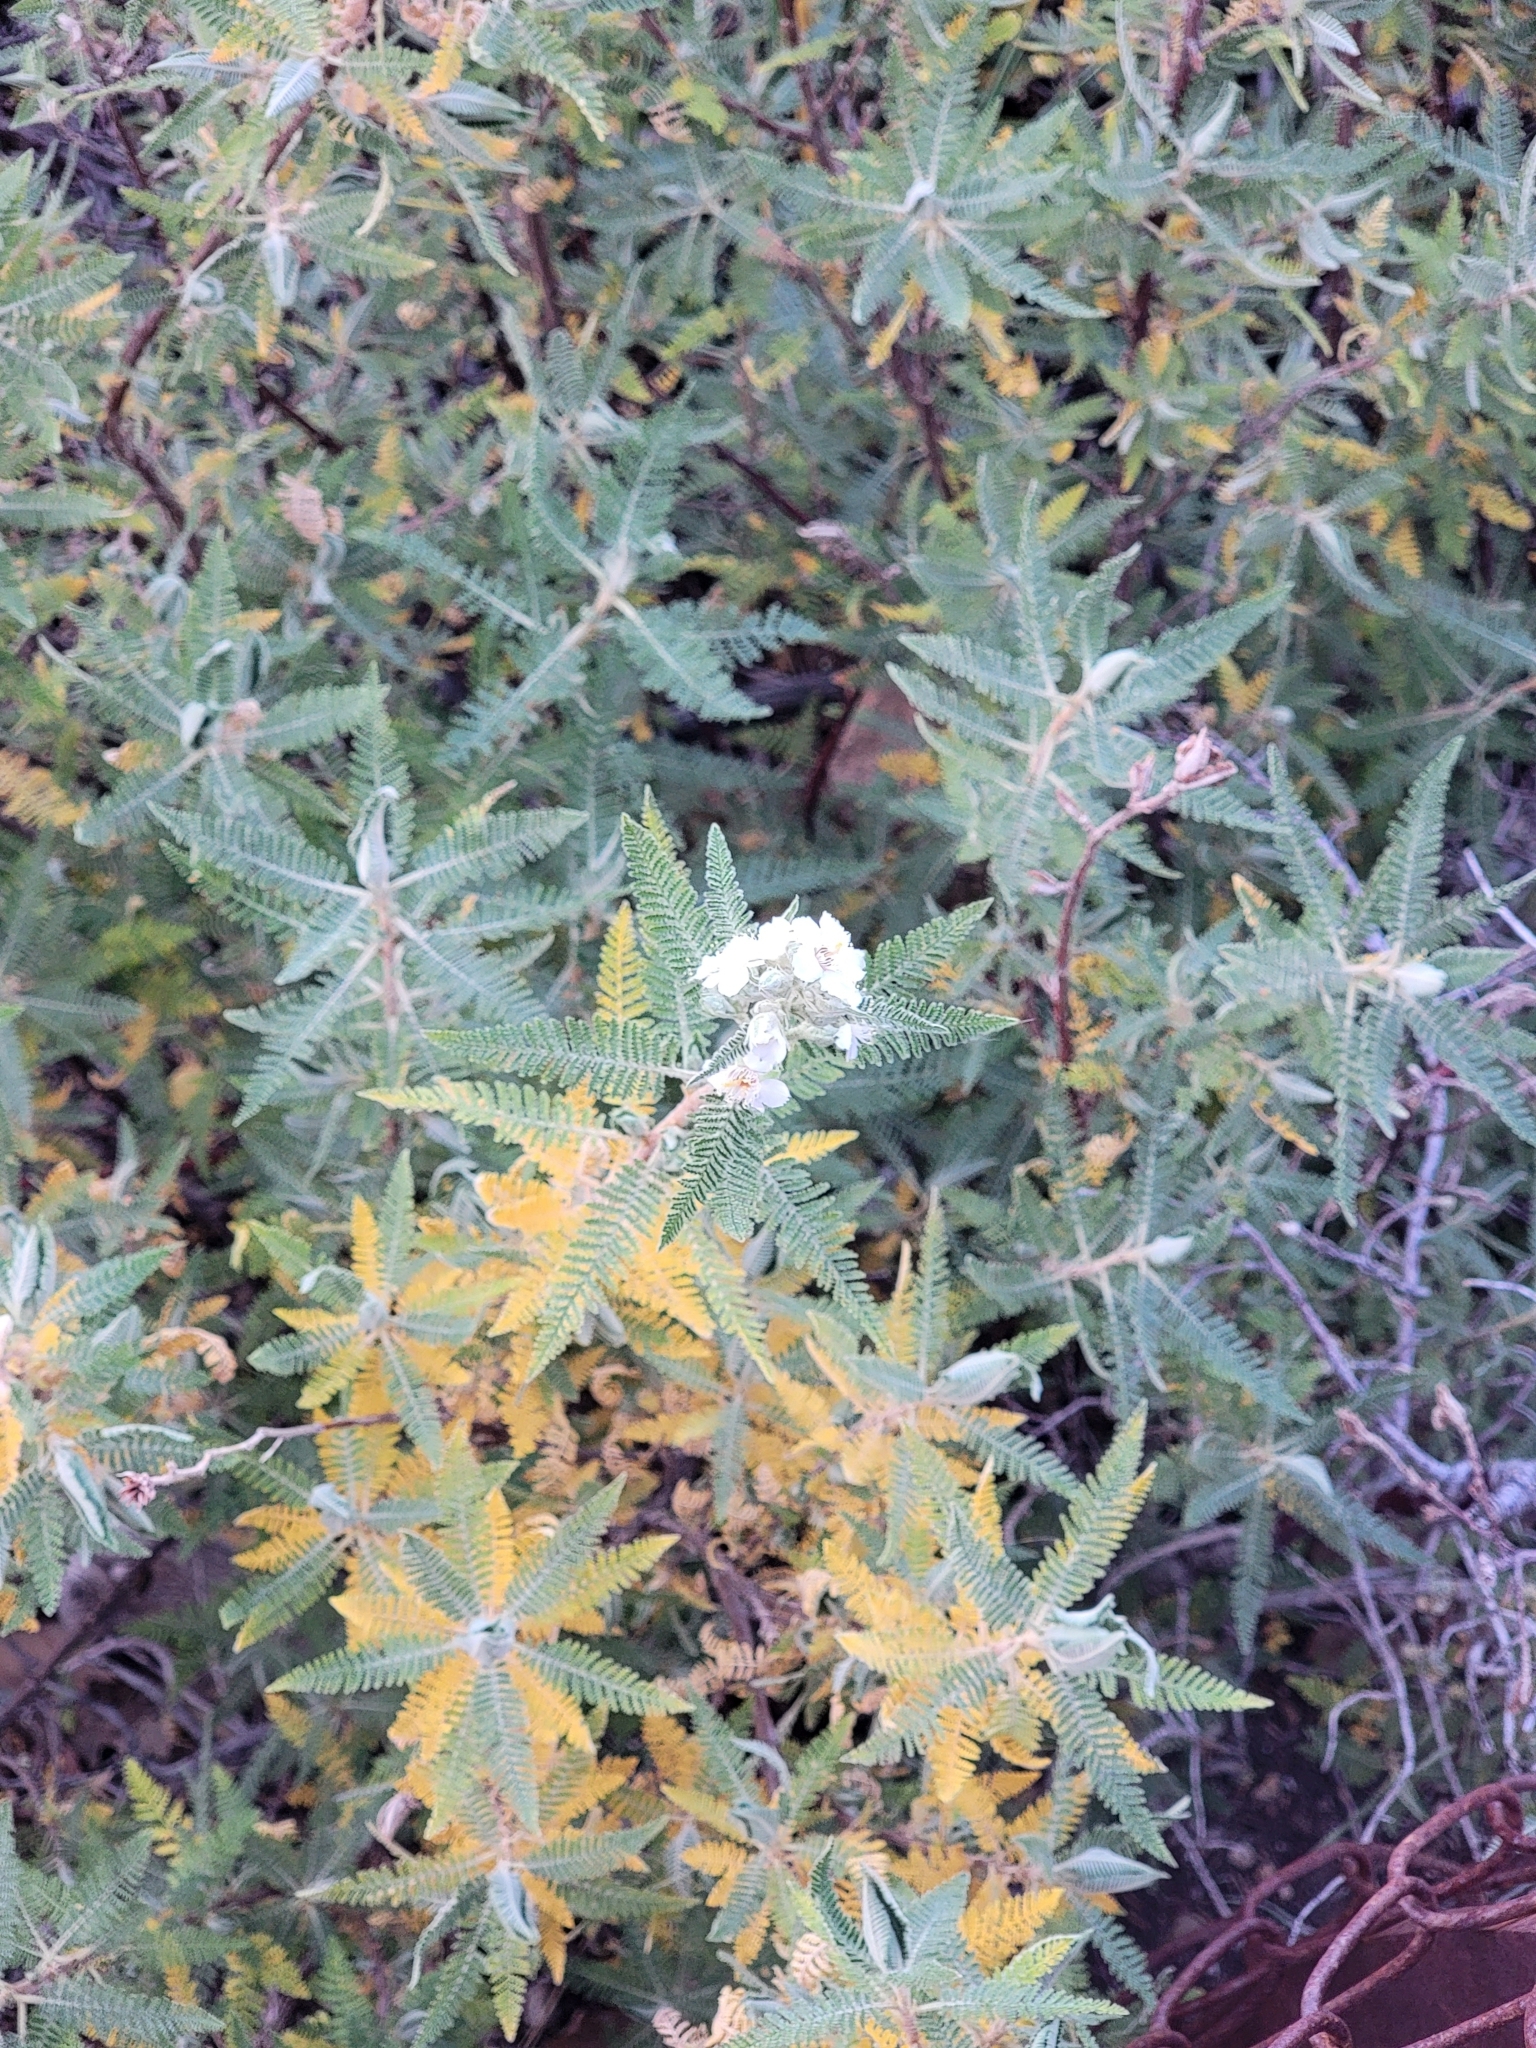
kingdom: Plantae
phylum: Tracheophyta
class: Magnoliopsida
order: Rosales
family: Rosaceae
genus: Chamaebatiaria
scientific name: Chamaebatiaria millefolium
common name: Fernbush
